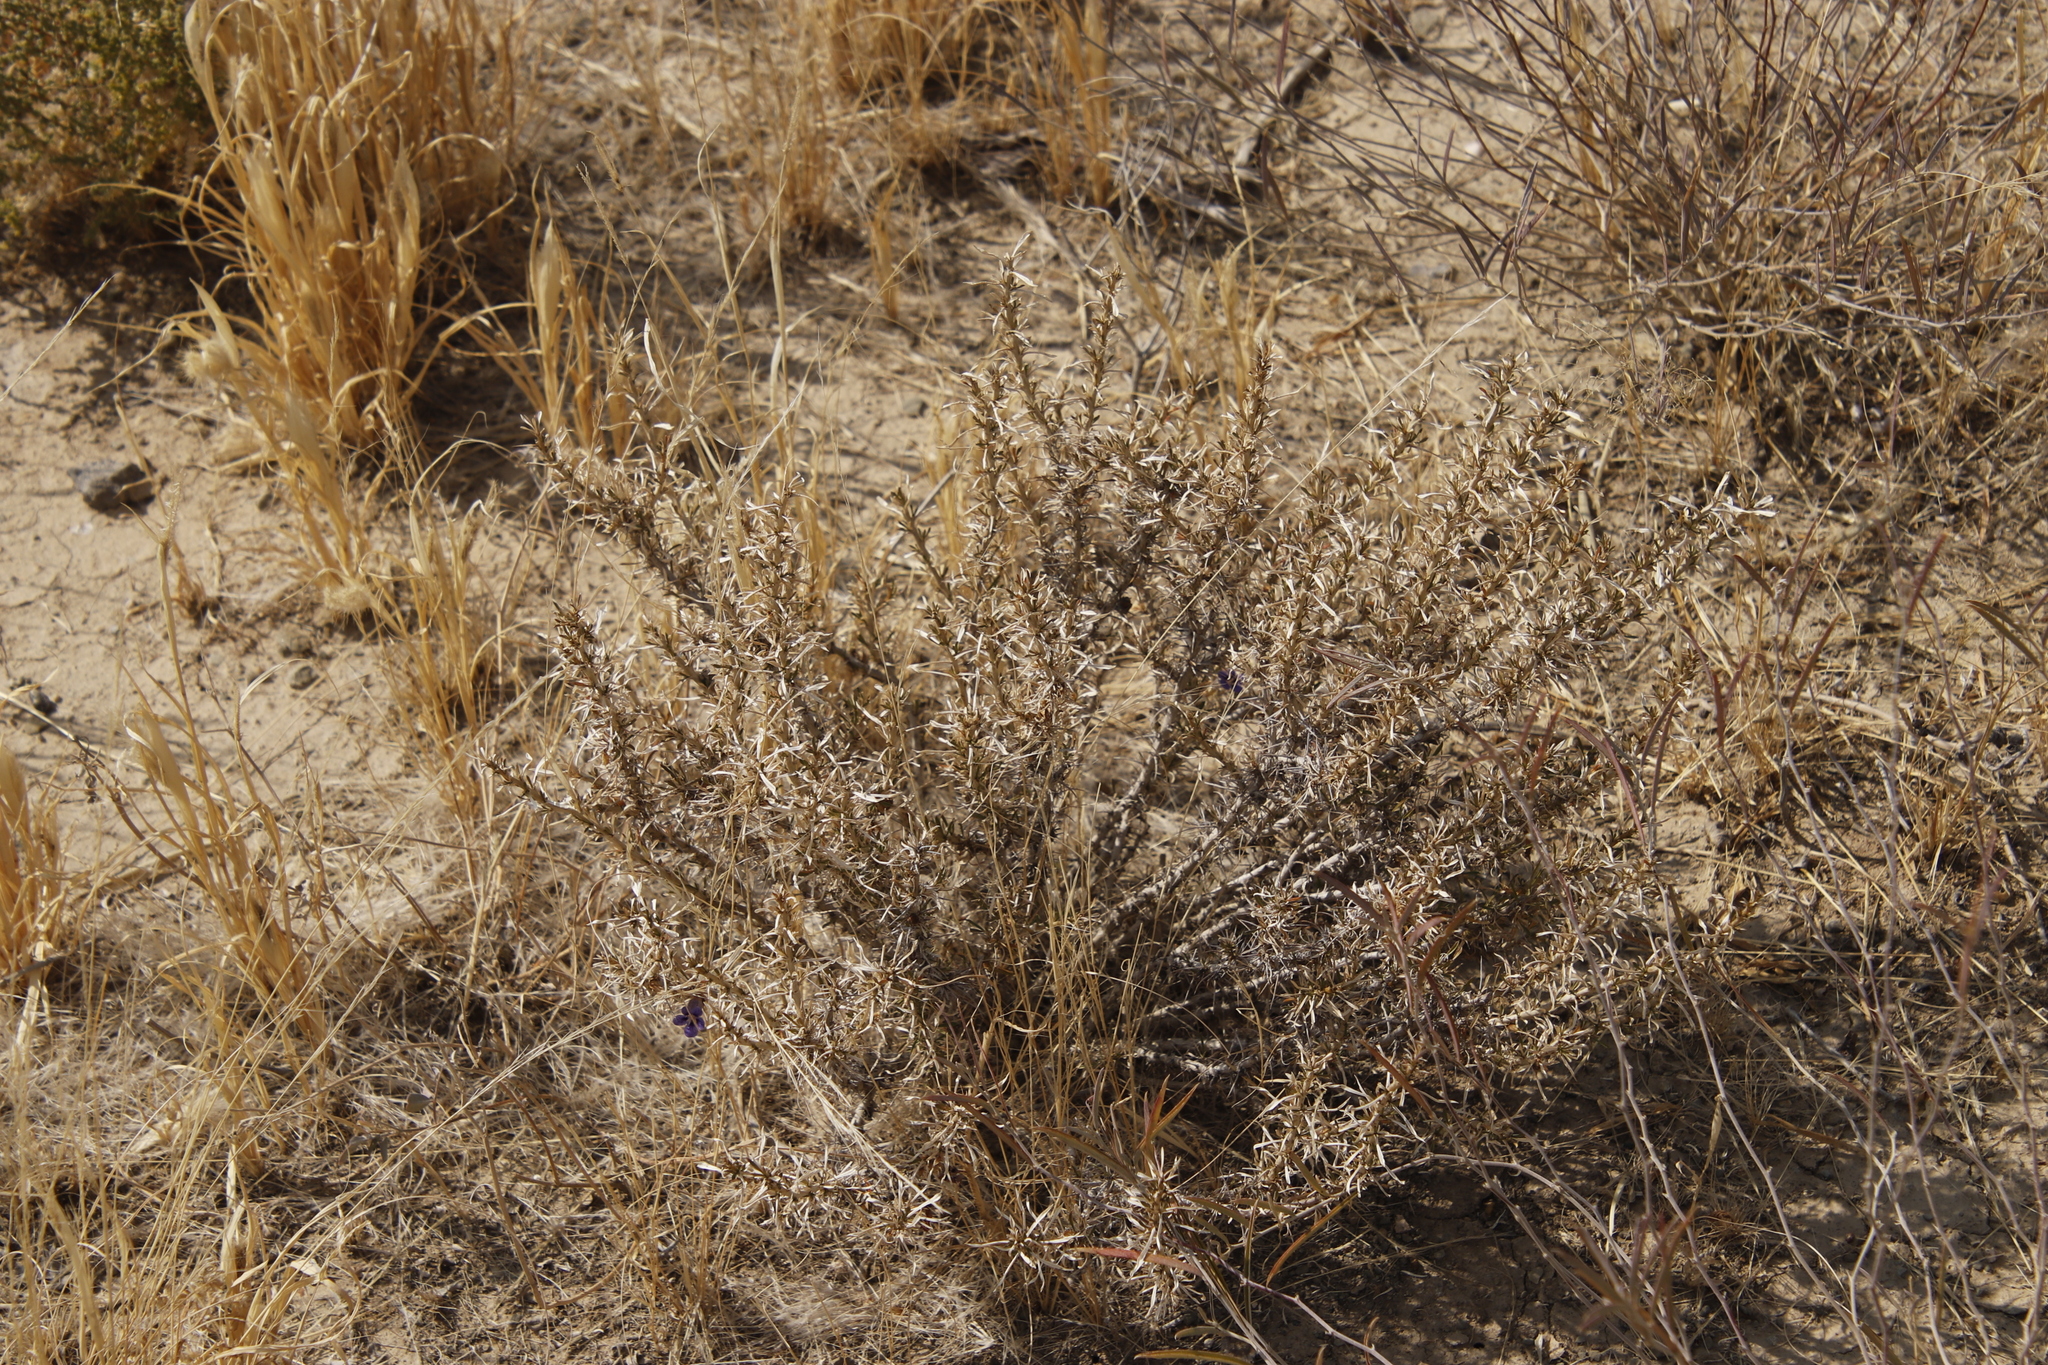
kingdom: Plantae
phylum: Tracheophyta
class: Magnoliopsida
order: Lamiales
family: Scrophulariaceae
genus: Aptosimum
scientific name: Aptosimum spinescens
